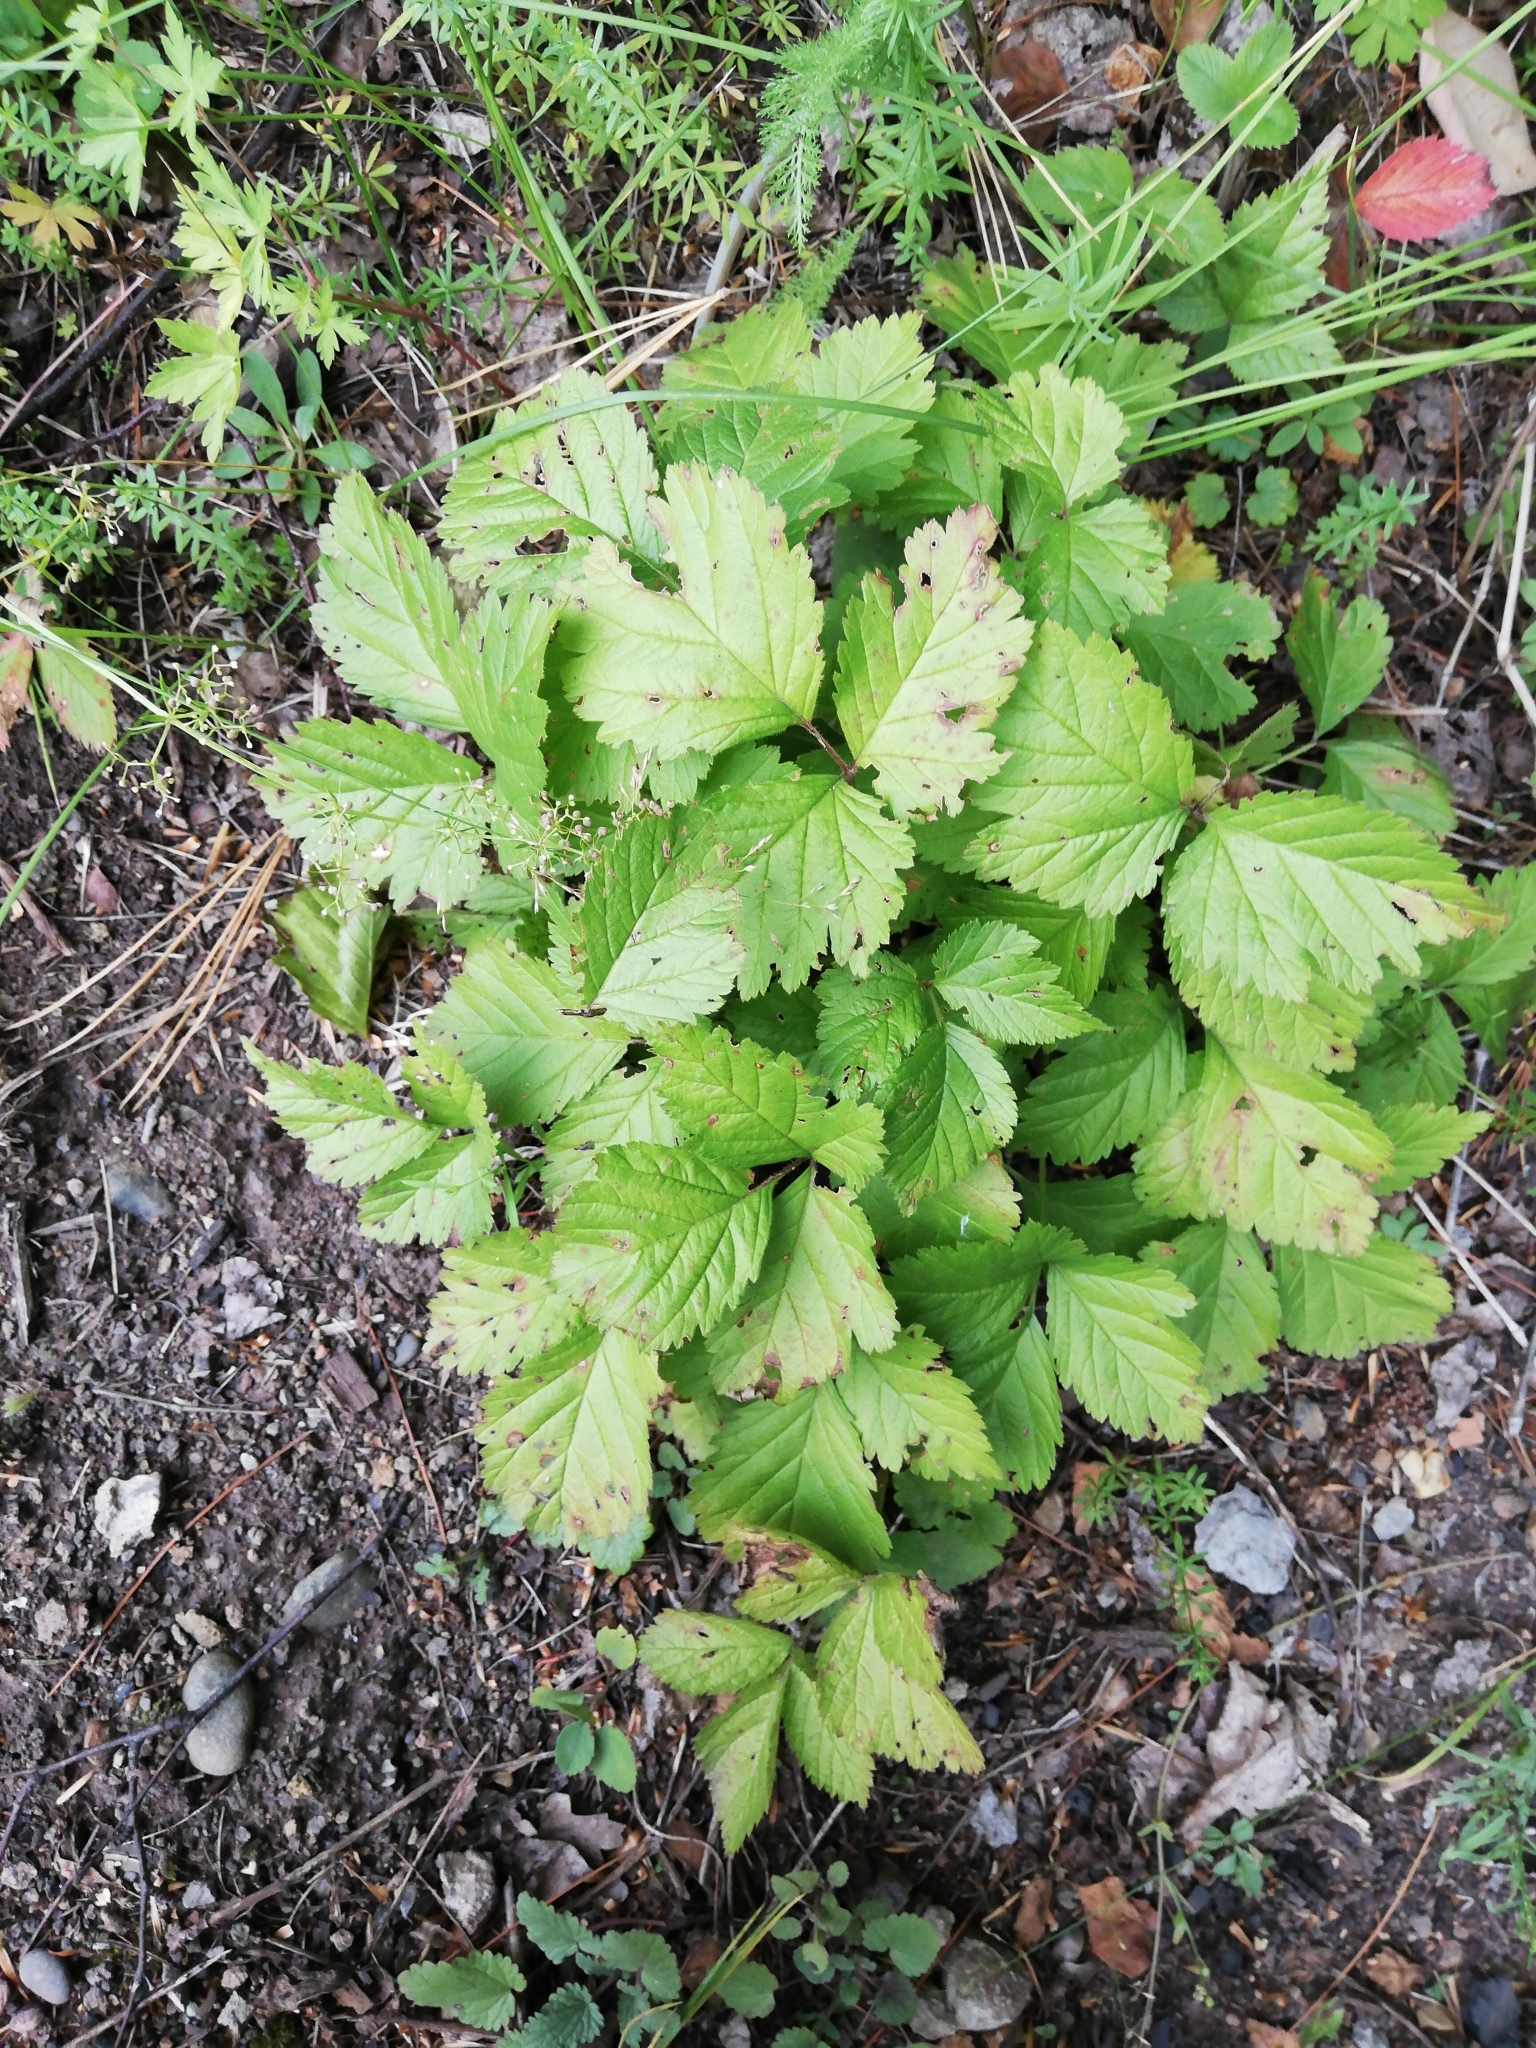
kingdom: Plantae
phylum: Tracheophyta
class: Magnoliopsida
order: Rosales
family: Rosaceae
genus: Rubus
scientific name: Rubus saxatilis
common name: Stone bramble
